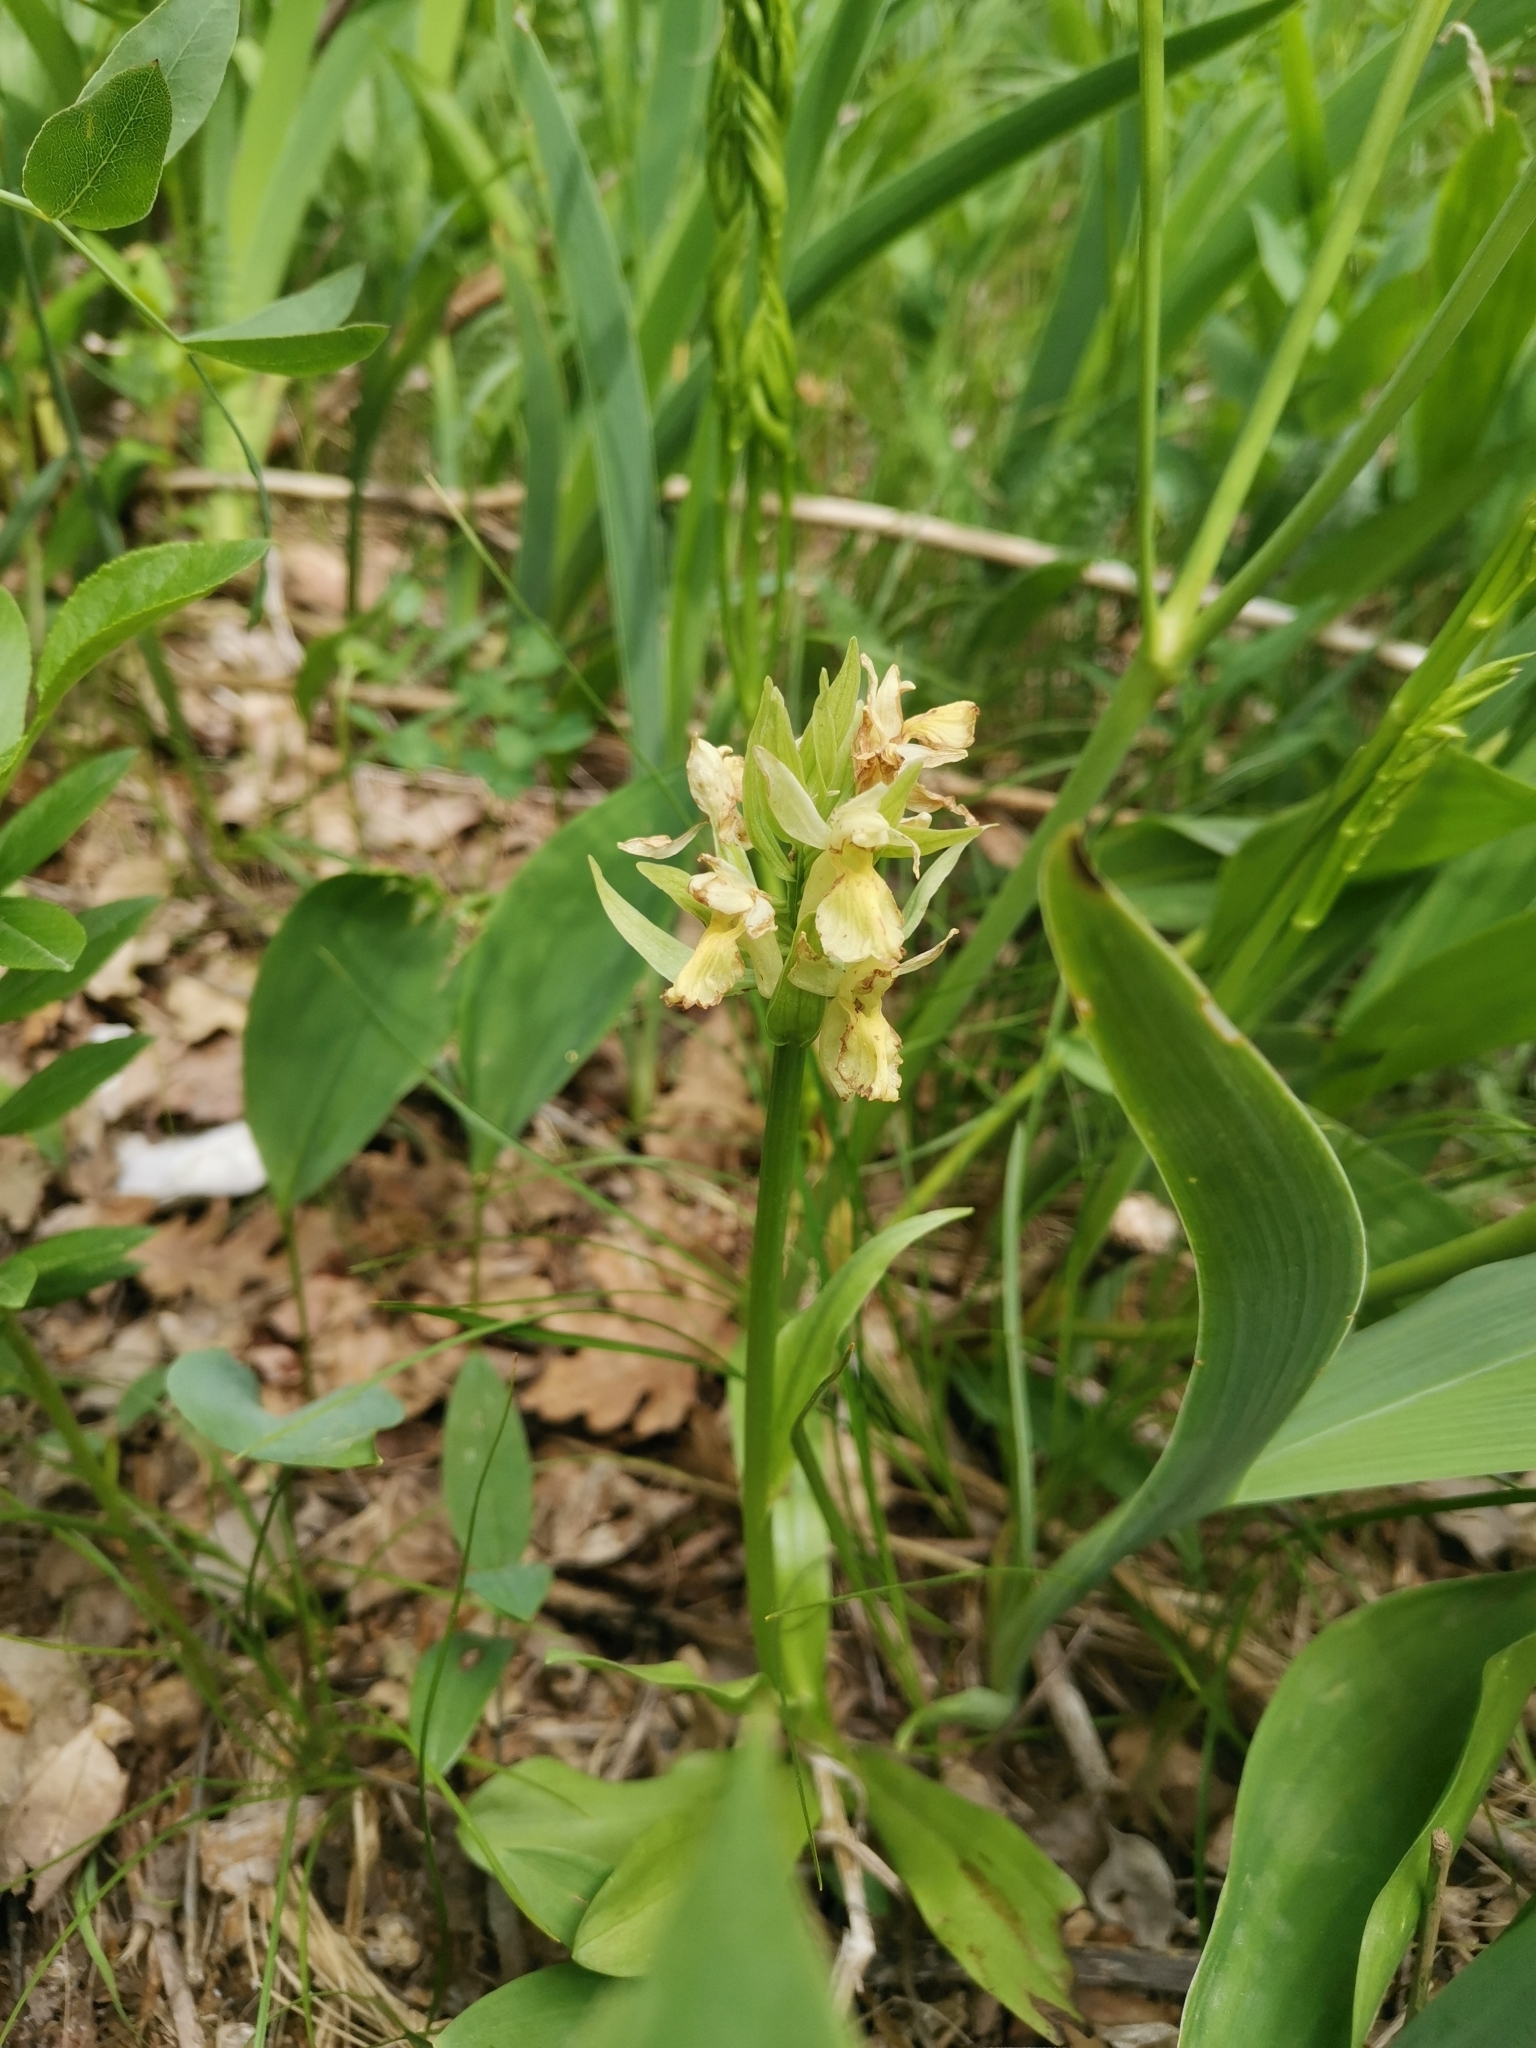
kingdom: Plantae
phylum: Tracheophyta
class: Liliopsida
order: Asparagales
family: Orchidaceae
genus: Dactylorhiza
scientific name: Dactylorhiza sambucina
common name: Elder-flowered orchid
